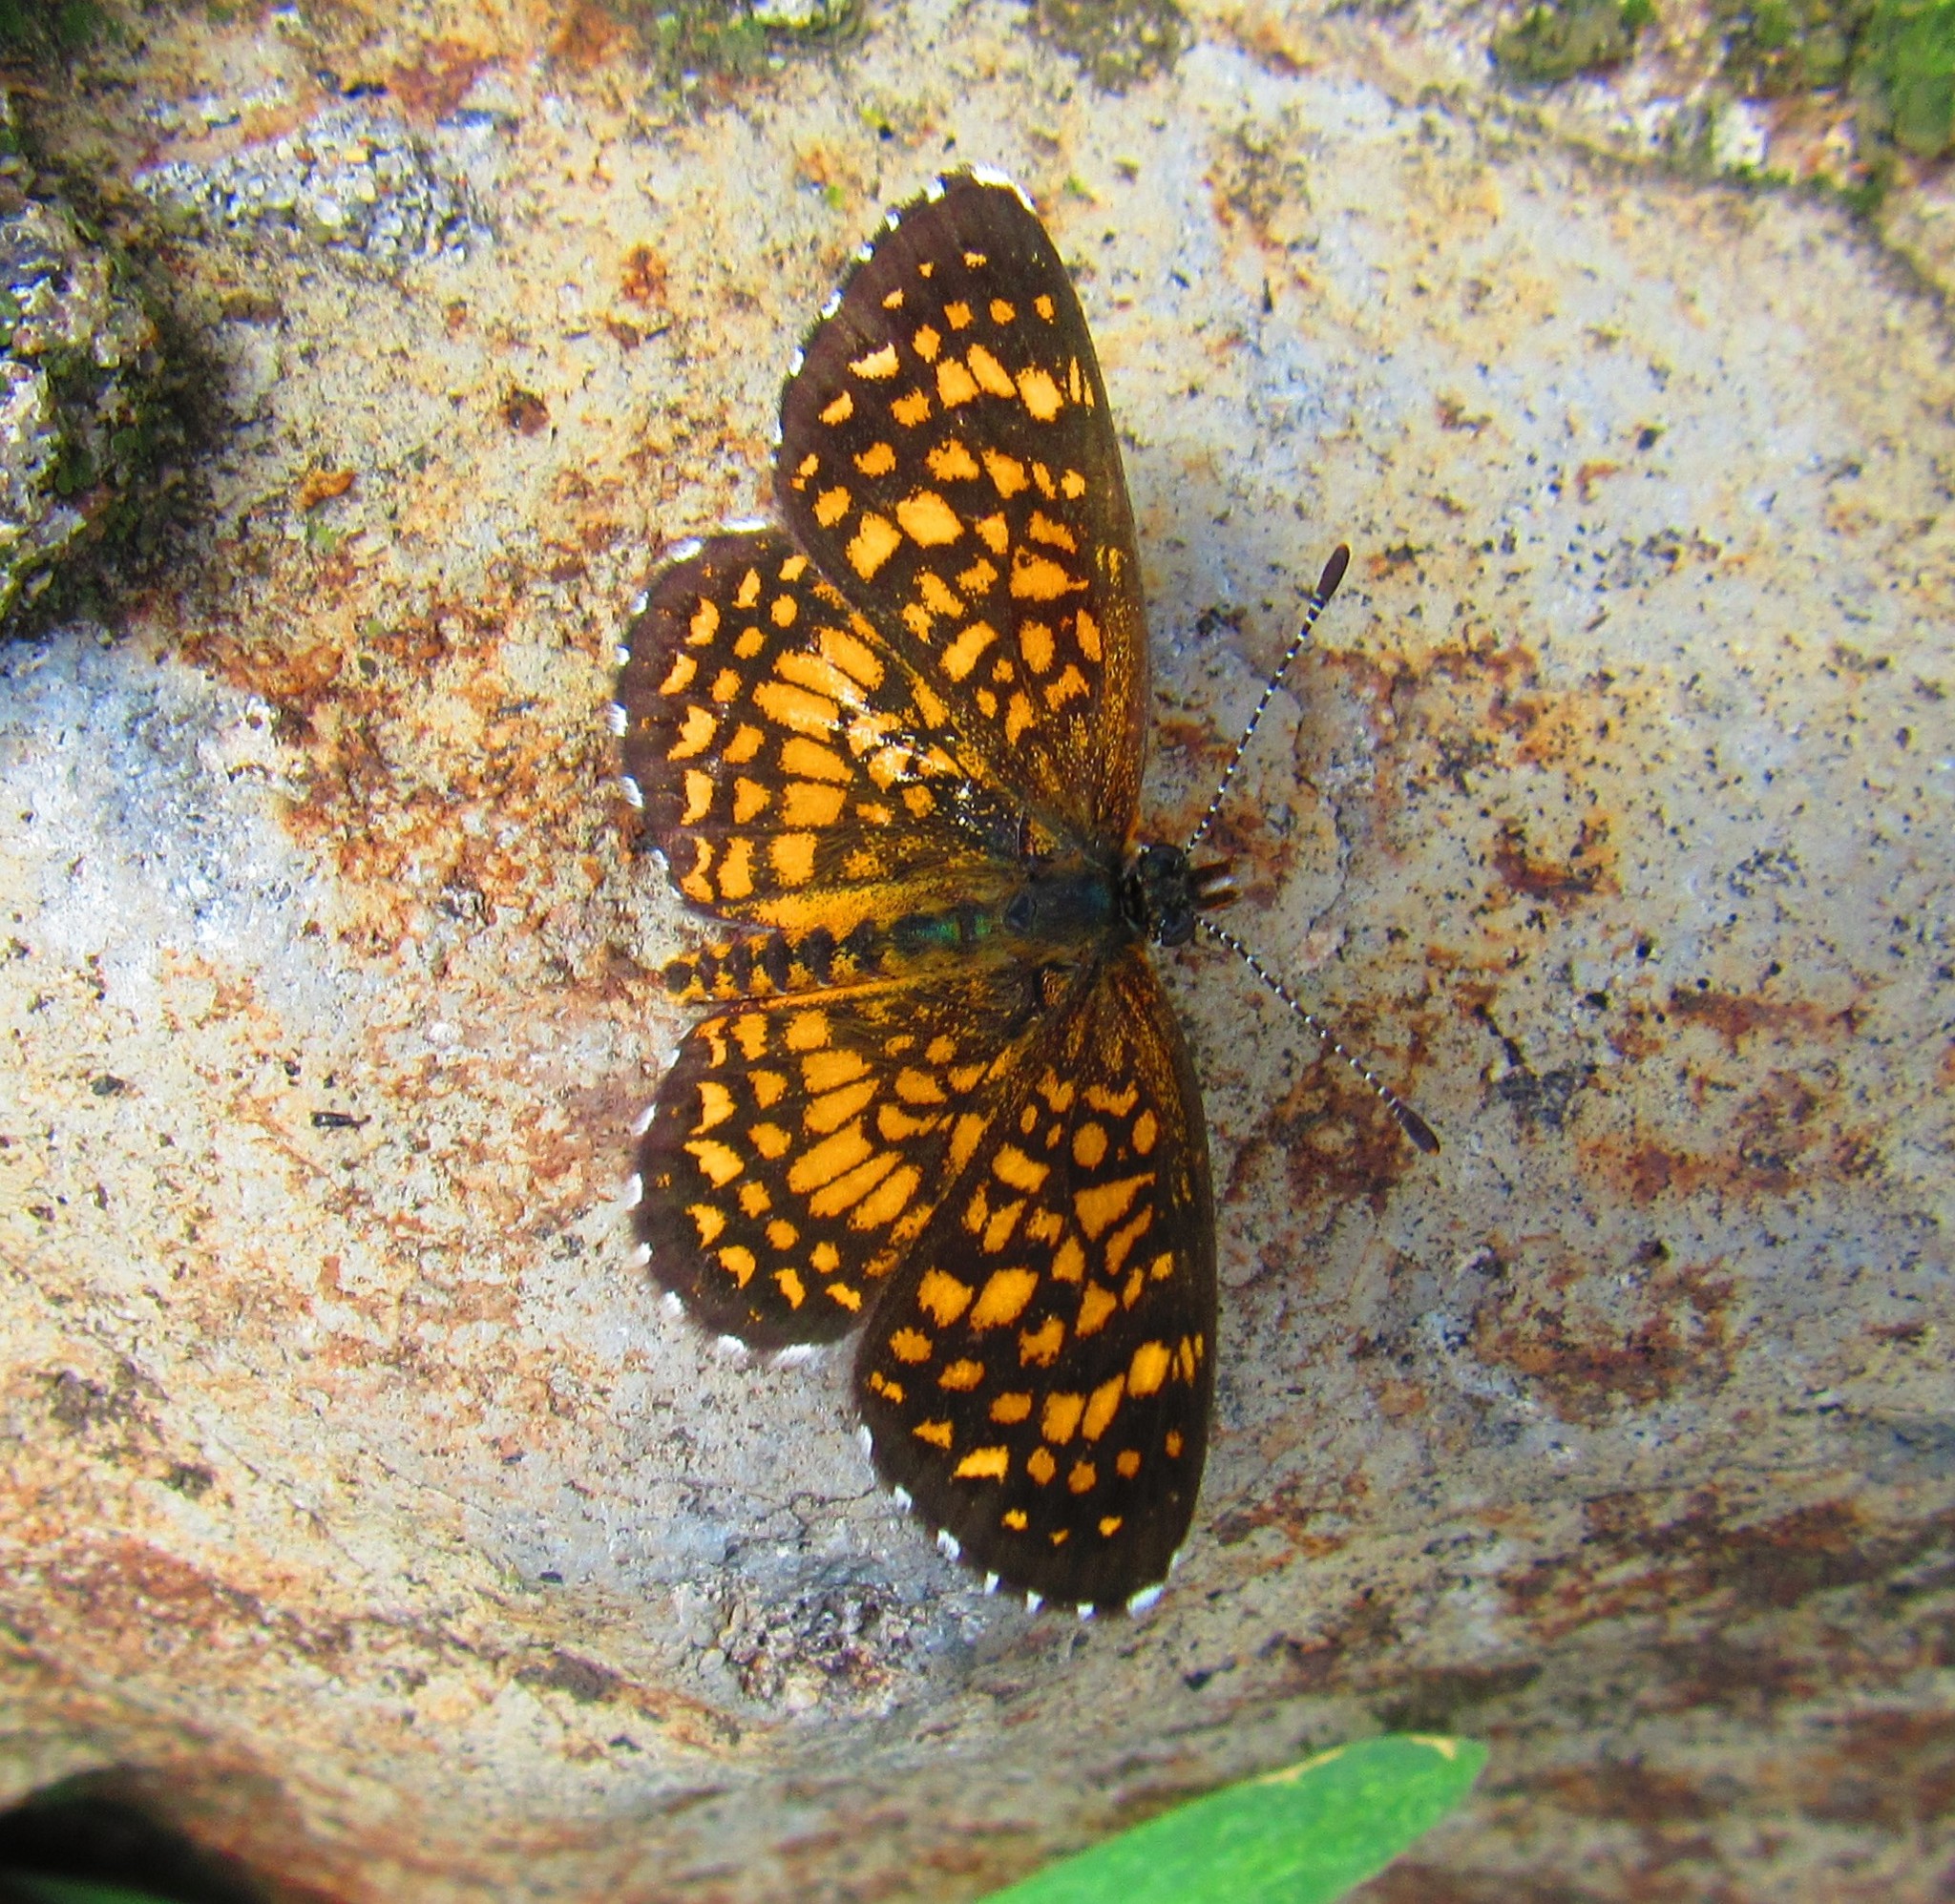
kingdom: Animalia
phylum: Arthropoda
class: Insecta
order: Lepidoptera
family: Nymphalidae
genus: Texola
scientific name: Texola elada
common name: Elada checkerspot
